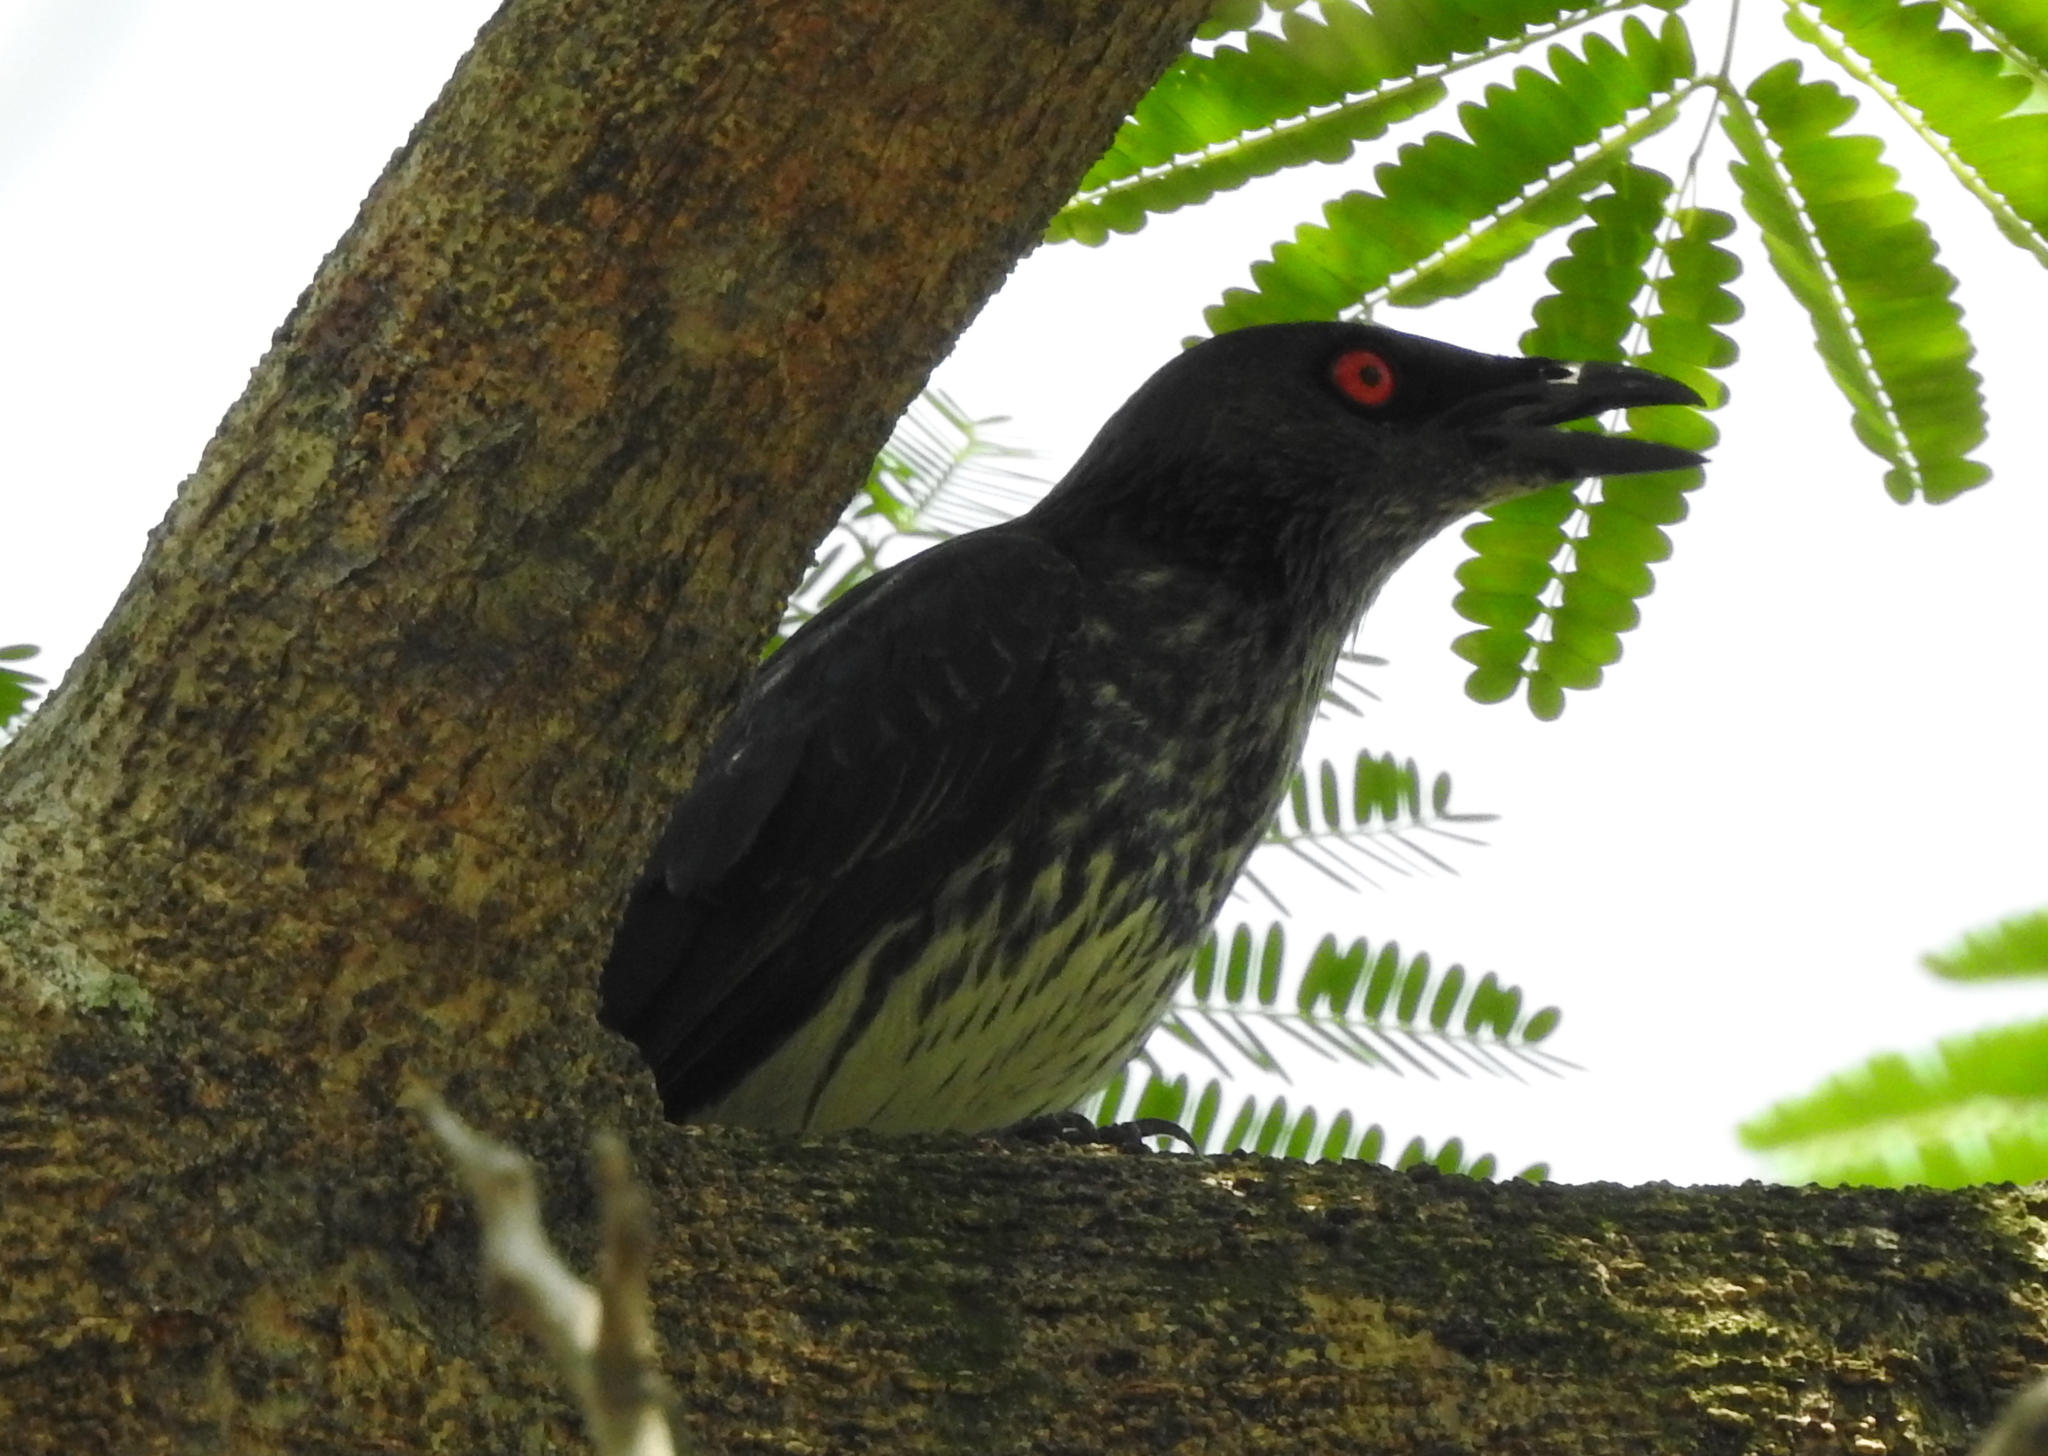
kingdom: Animalia
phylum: Chordata
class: Aves
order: Passeriformes
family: Sturnidae
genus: Aplonis
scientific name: Aplonis panayensis
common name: Asian glossy starling
